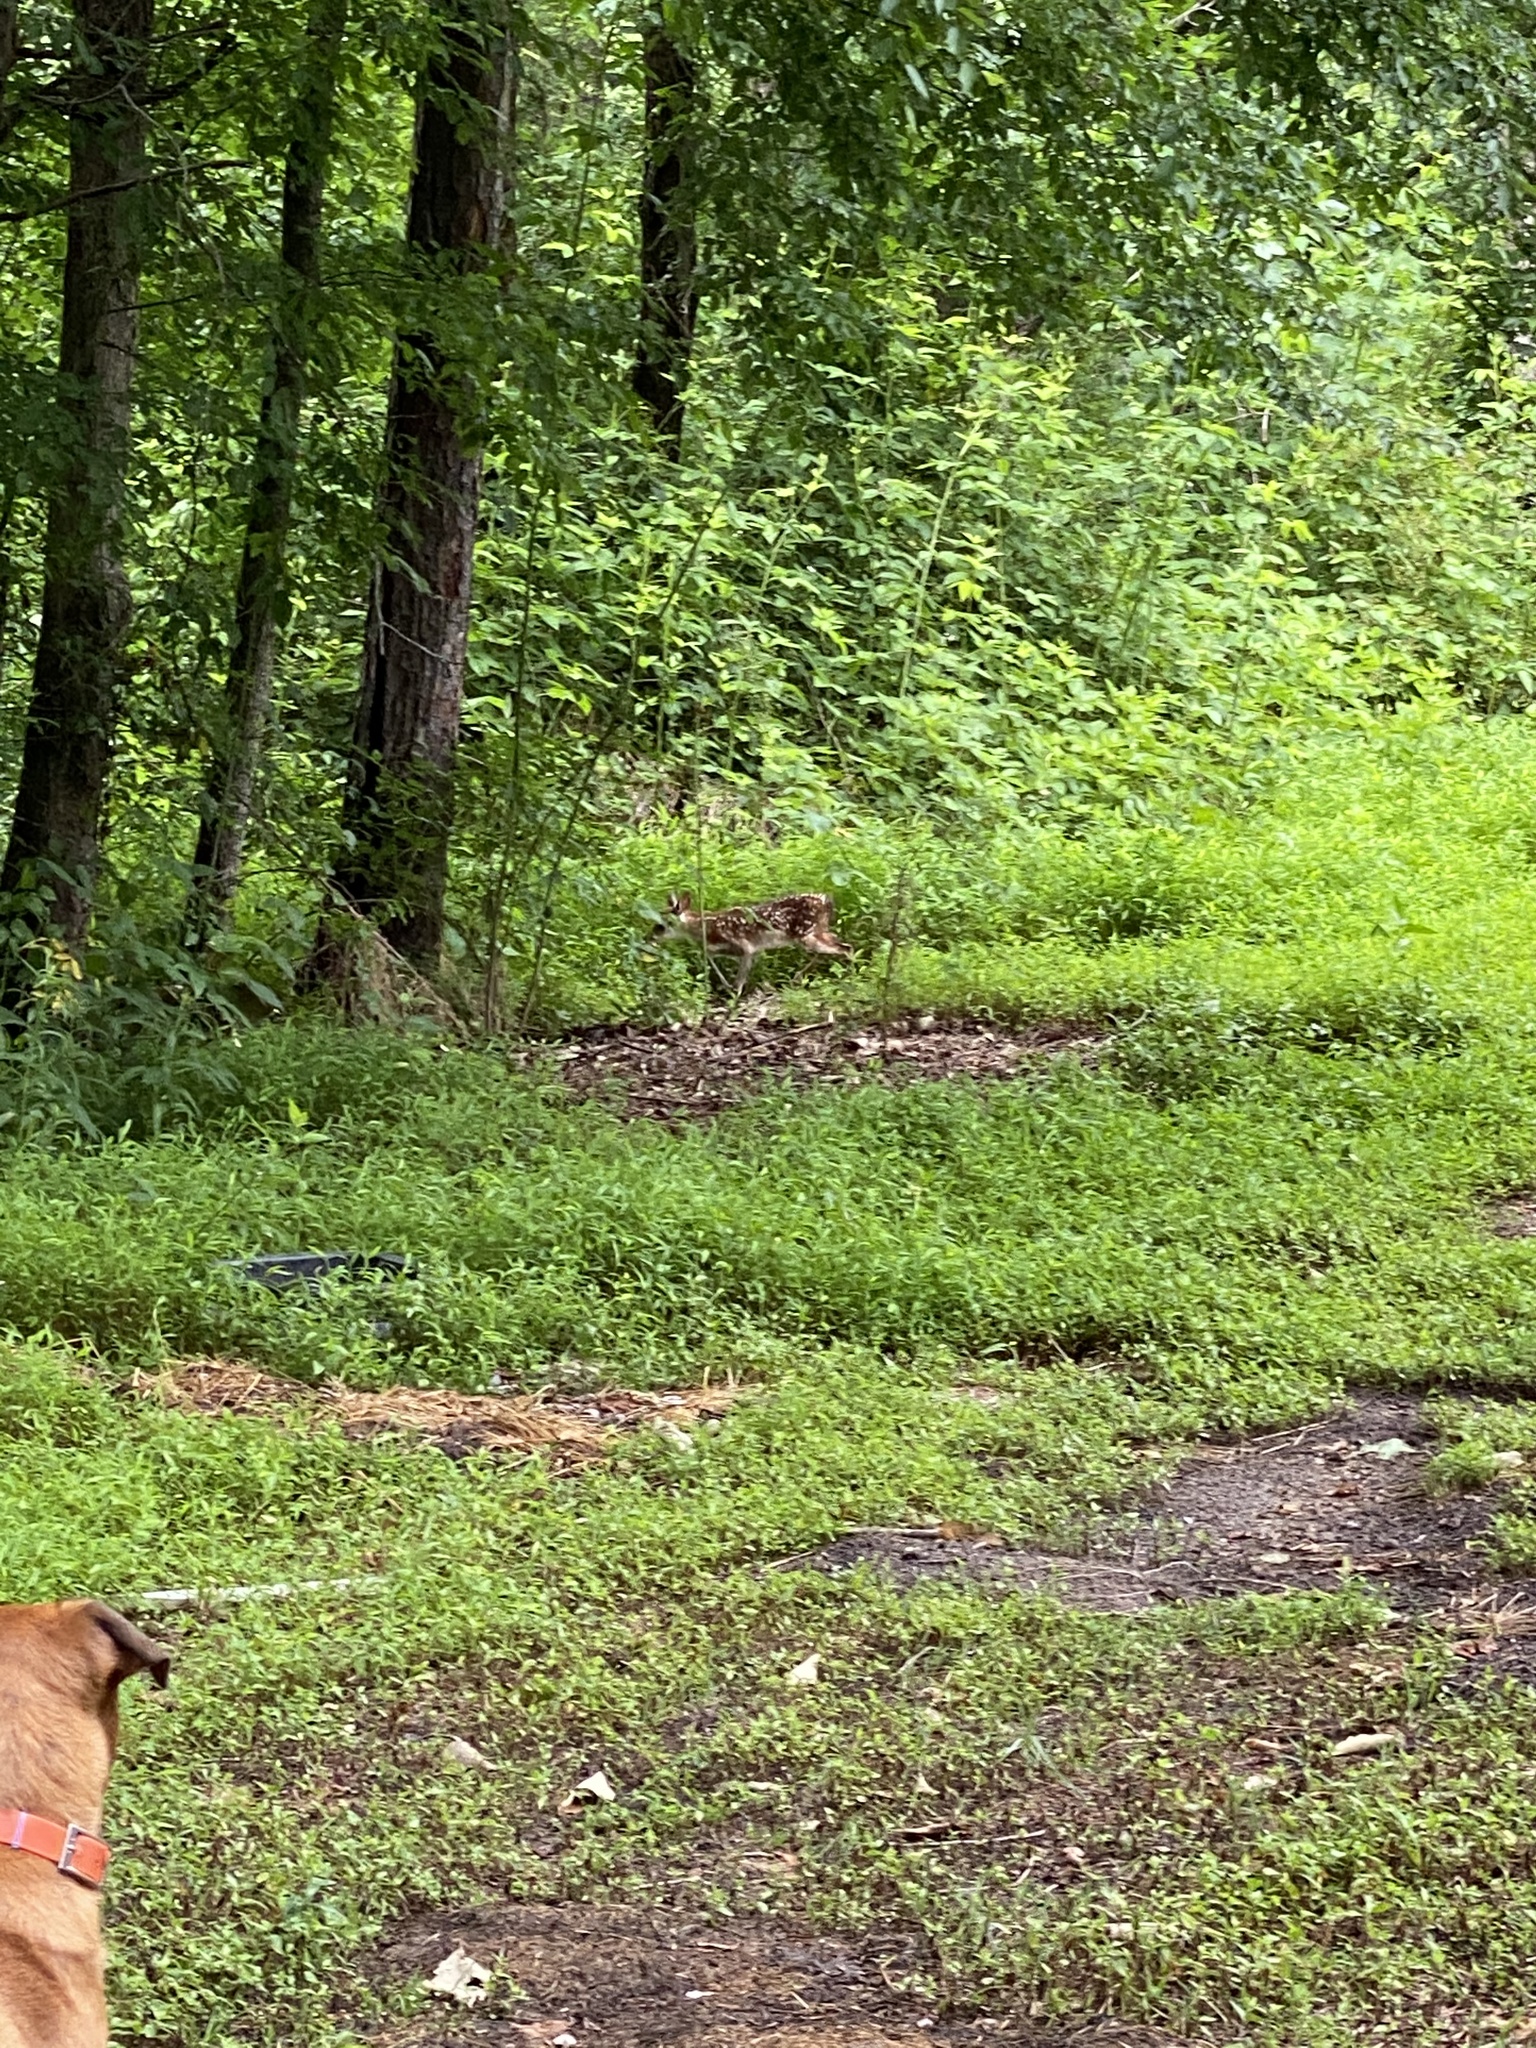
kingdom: Animalia
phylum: Chordata
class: Mammalia
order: Artiodactyla
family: Cervidae
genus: Odocoileus
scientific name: Odocoileus virginianus
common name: White-tailed deer
